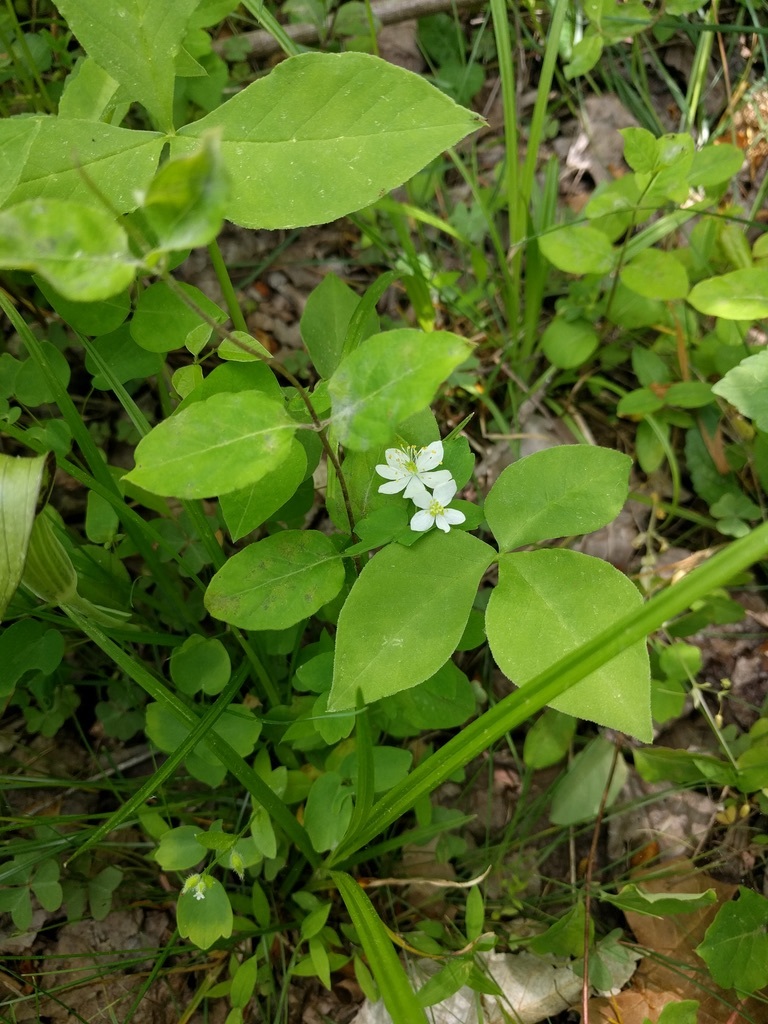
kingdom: Plantae
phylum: Tracheophyta
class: Magnoliopsida
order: Ranunculales
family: Ranunculaceae
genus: Thalictrum
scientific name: Thalictrum thalictroides
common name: Rue-anemone
